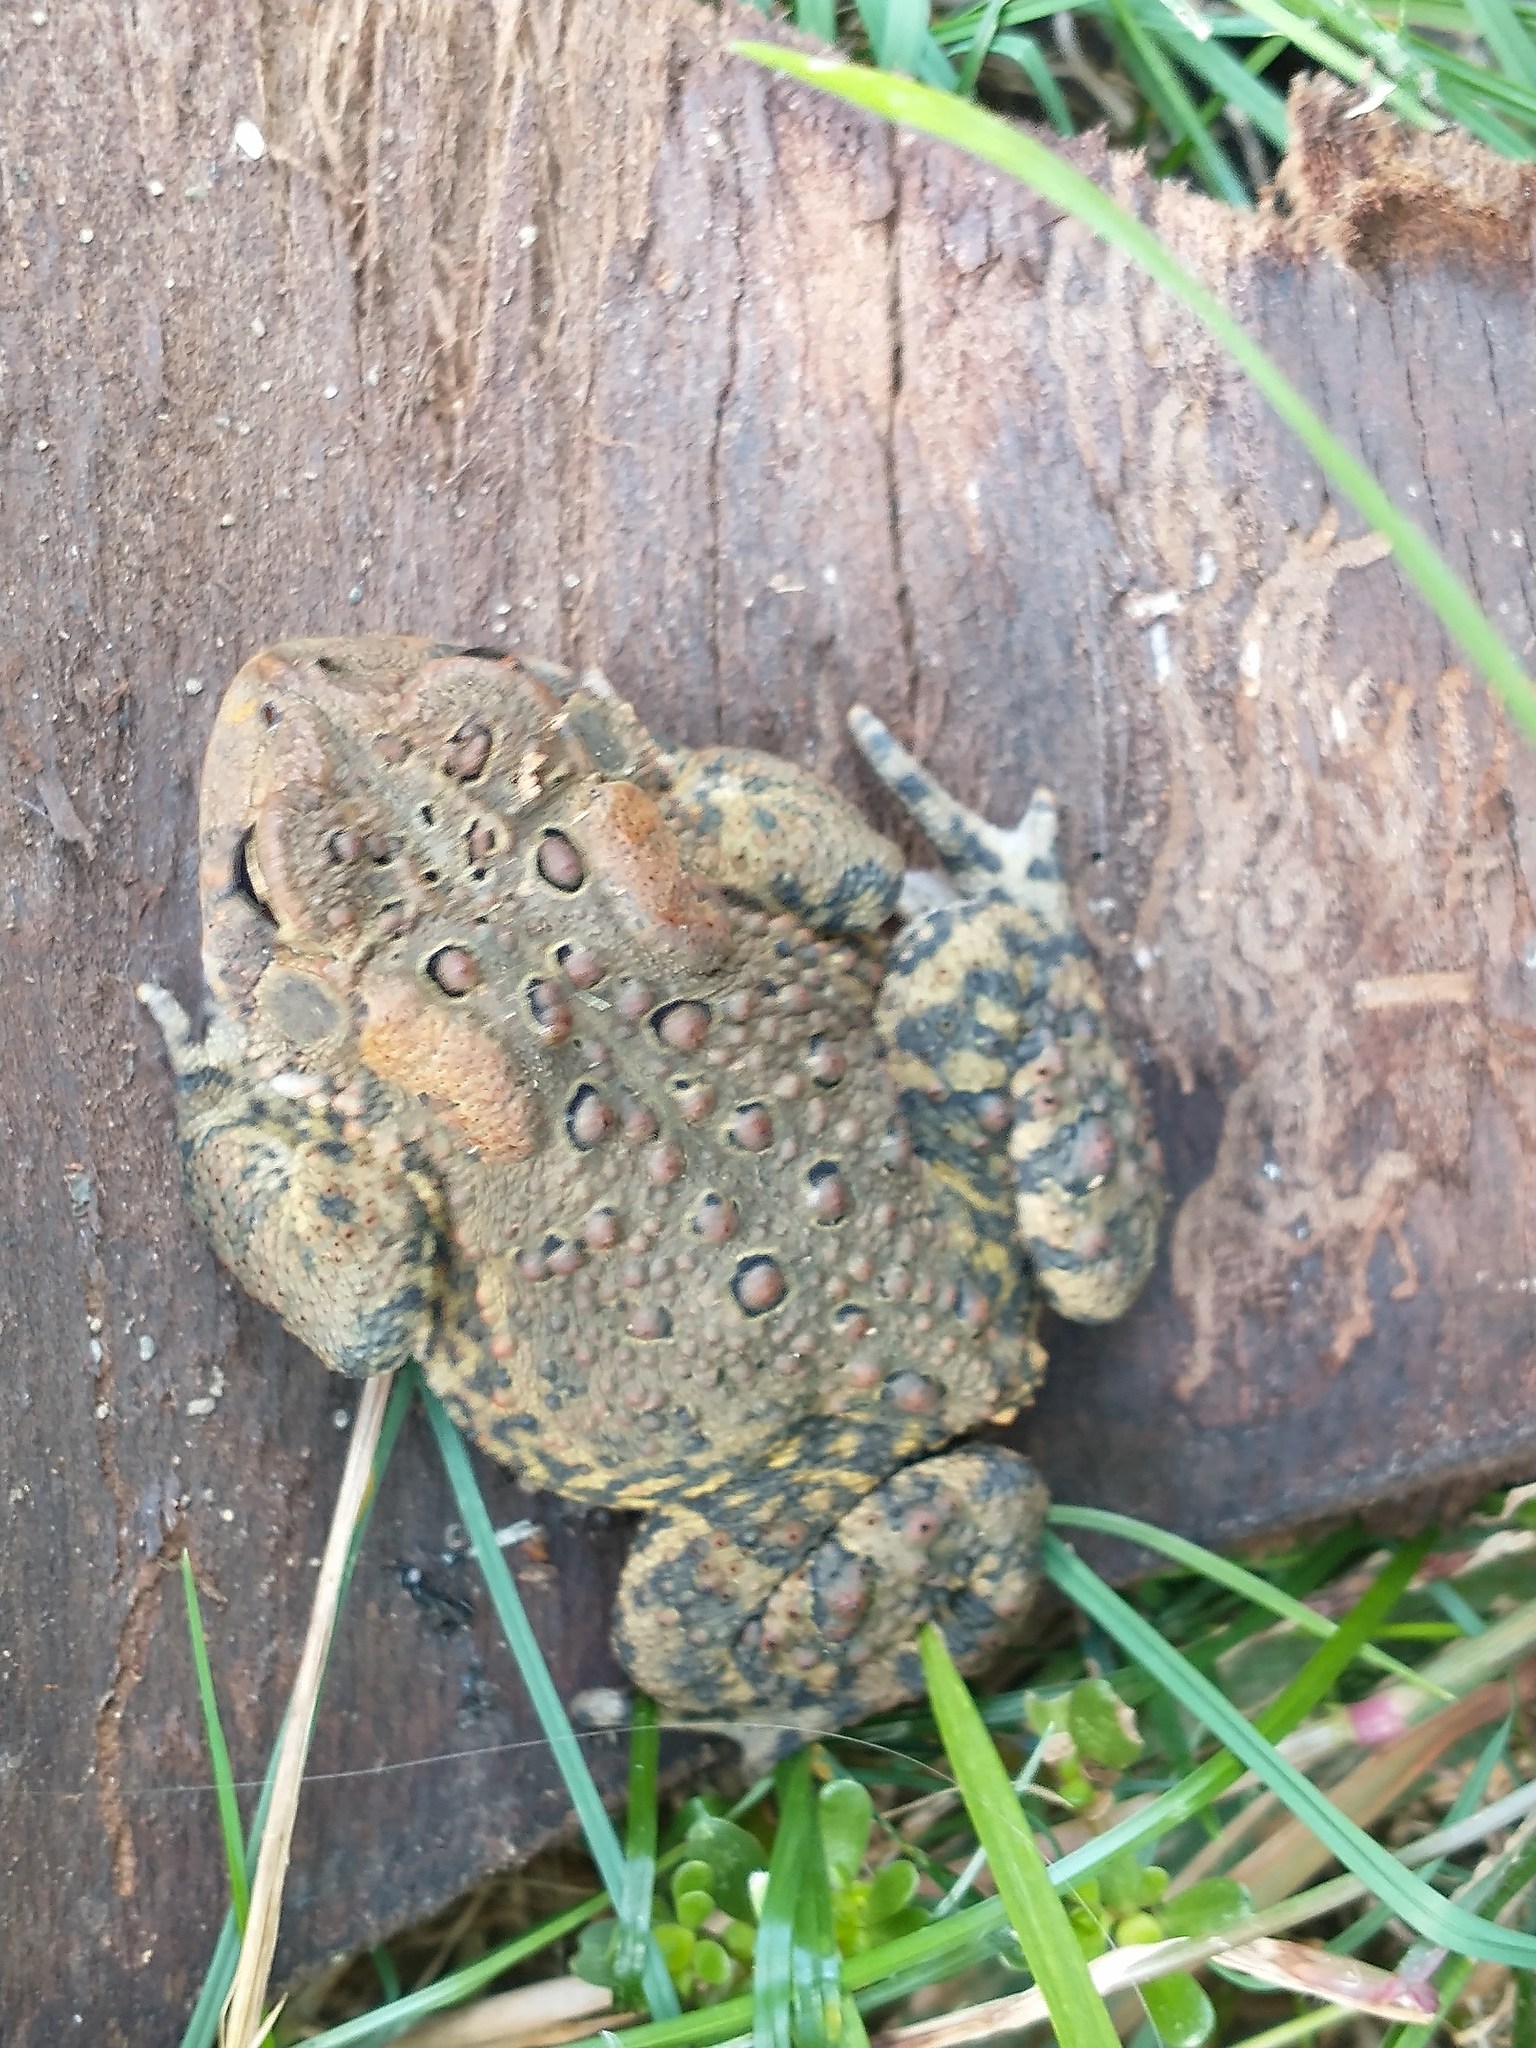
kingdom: Animalia
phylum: Chordata
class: Amphibia
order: Anura
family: Bufonidae
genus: Anaxyrus
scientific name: Anaxyrus americanus
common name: American toad
